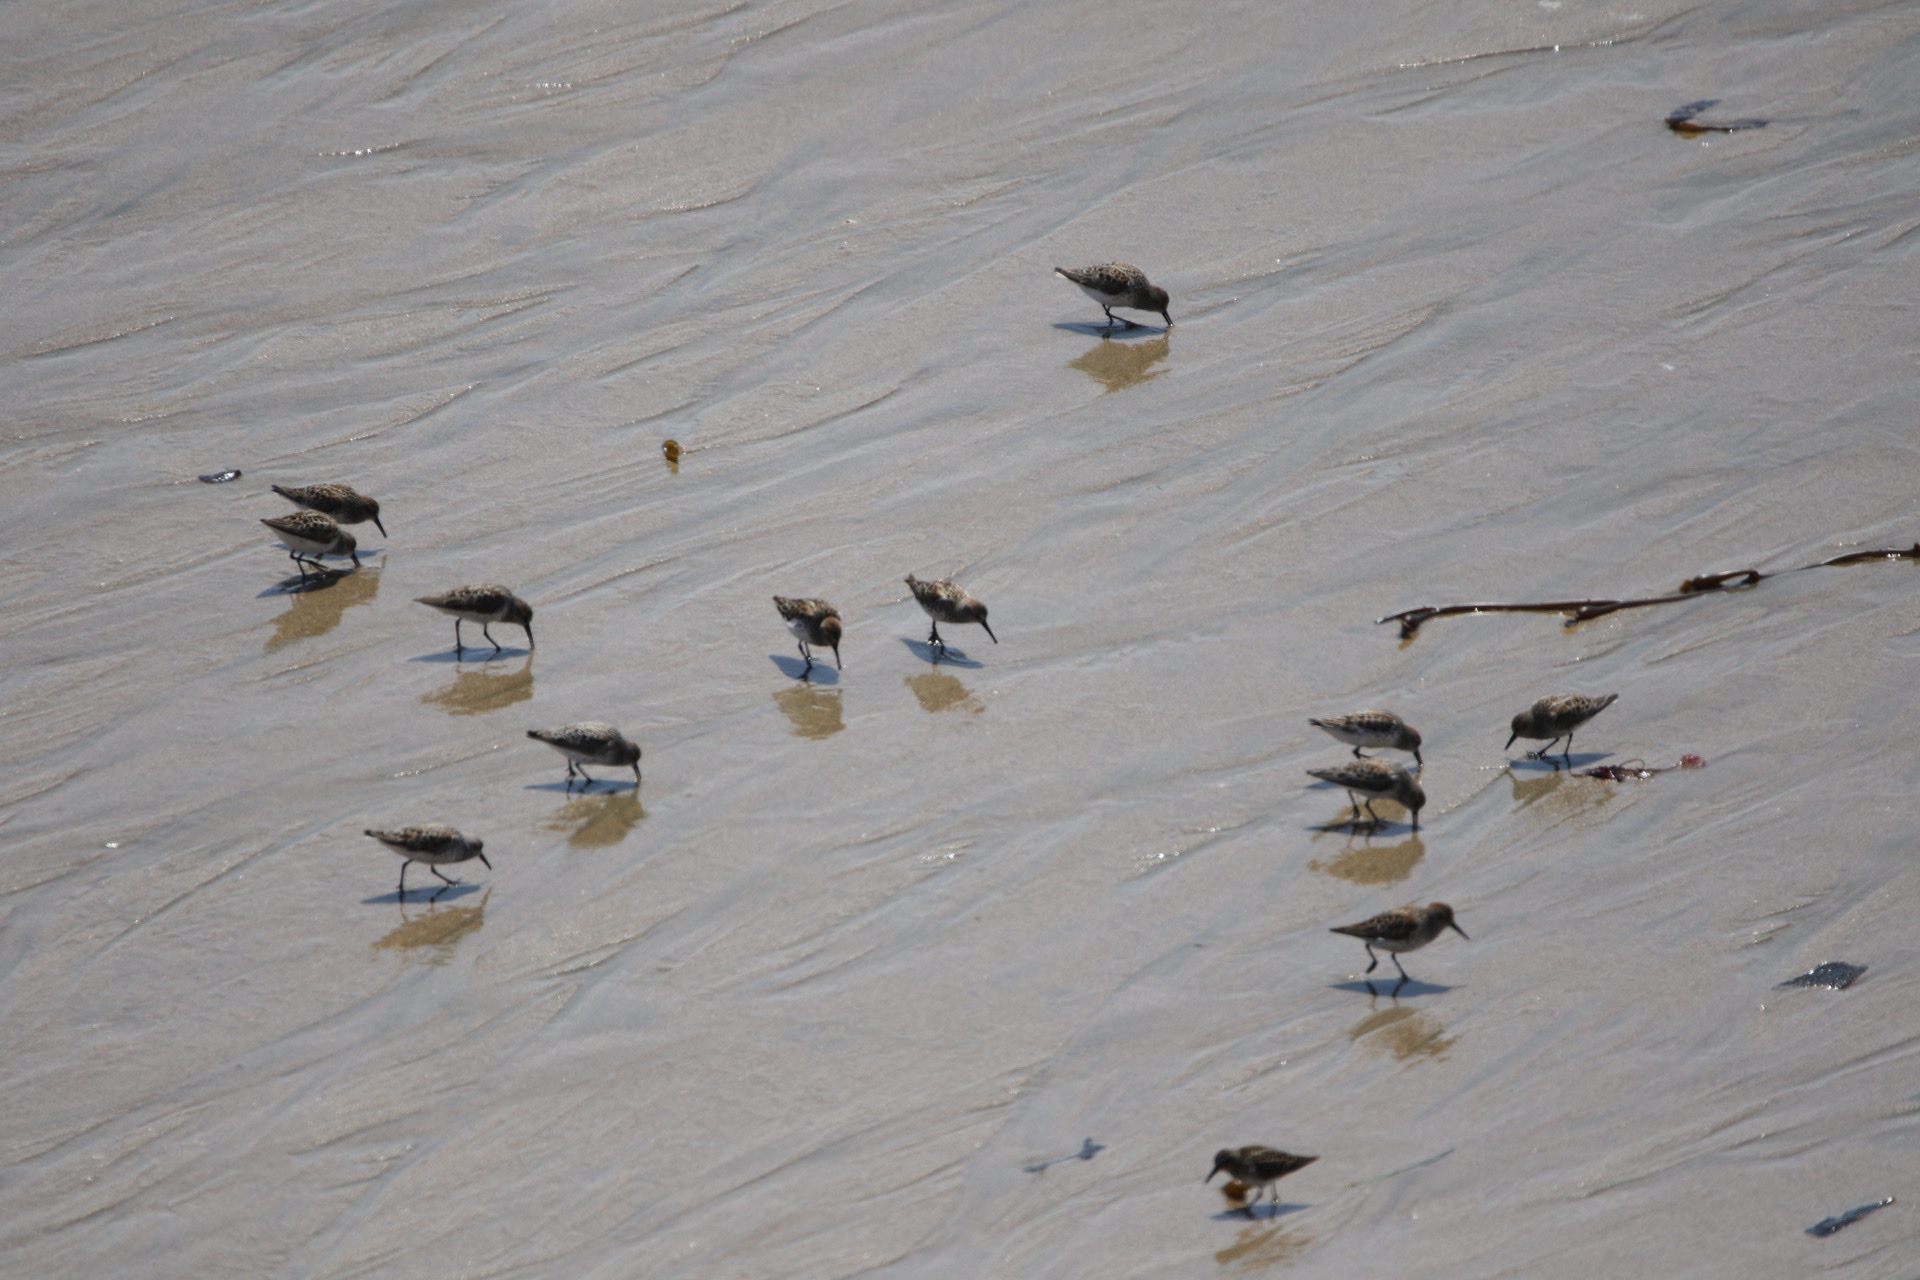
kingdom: Animalia
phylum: Chordata
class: Aves
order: Charadriiformes
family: Scolopacidae
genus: Calidris
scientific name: Calidris mauri
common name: Western sandpiper
